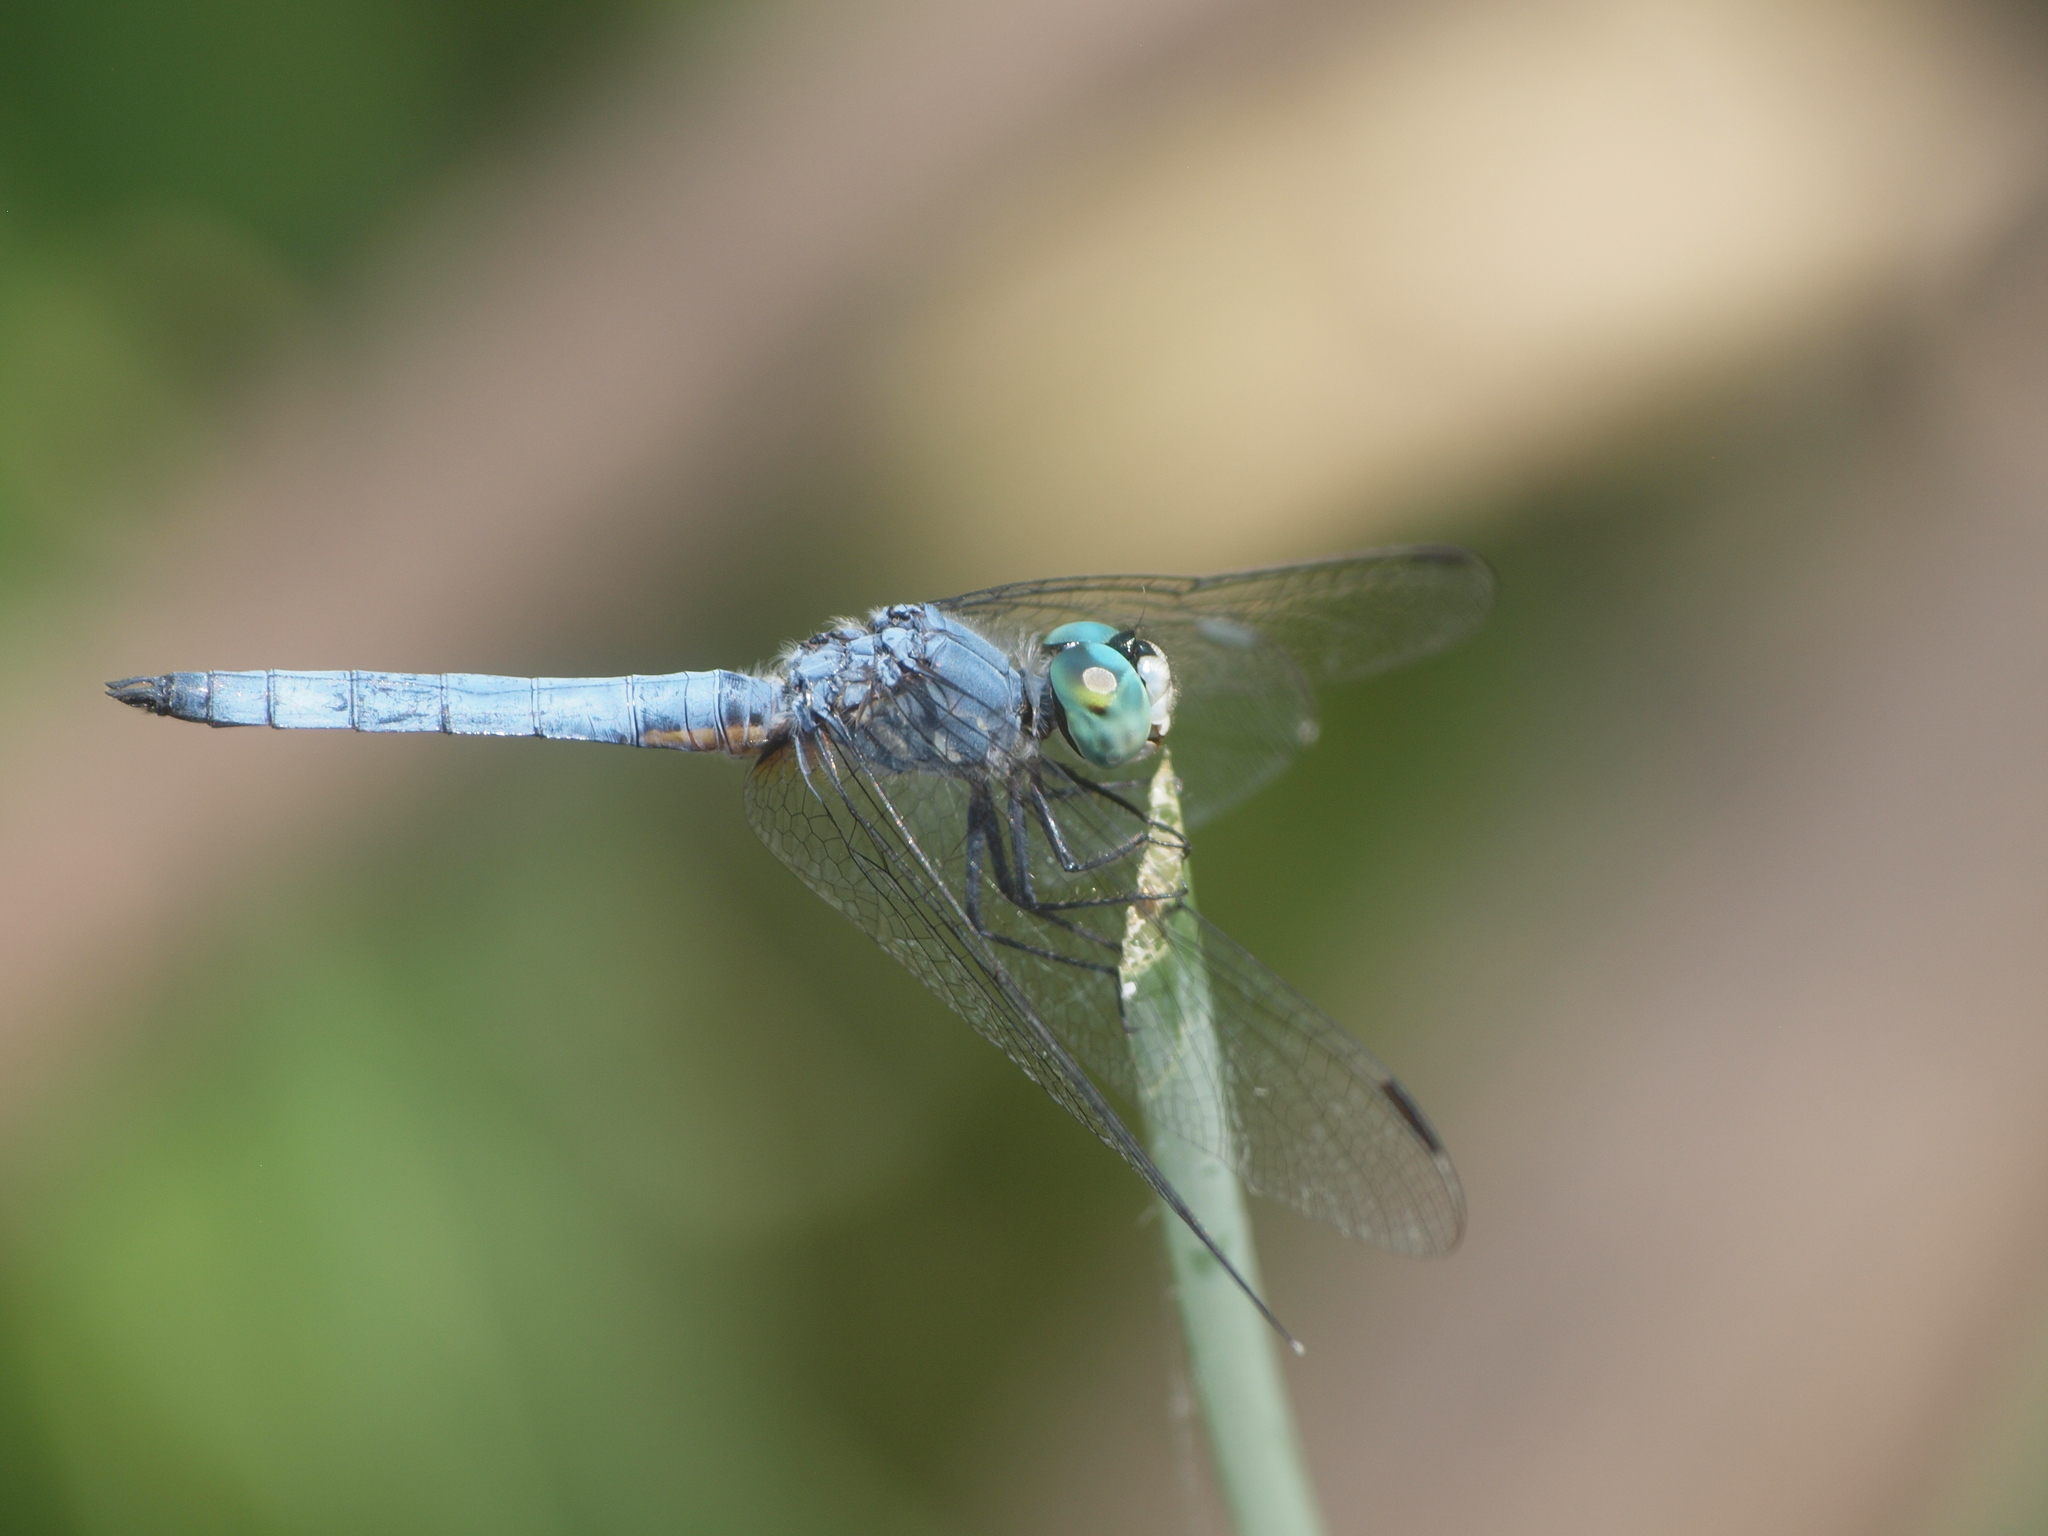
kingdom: Animalia
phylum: Arthropoda
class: Insecta
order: Odonata
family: Libellulidae
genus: Pachydiplax
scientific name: Pachydiplax longipennis
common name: Blue dasher
